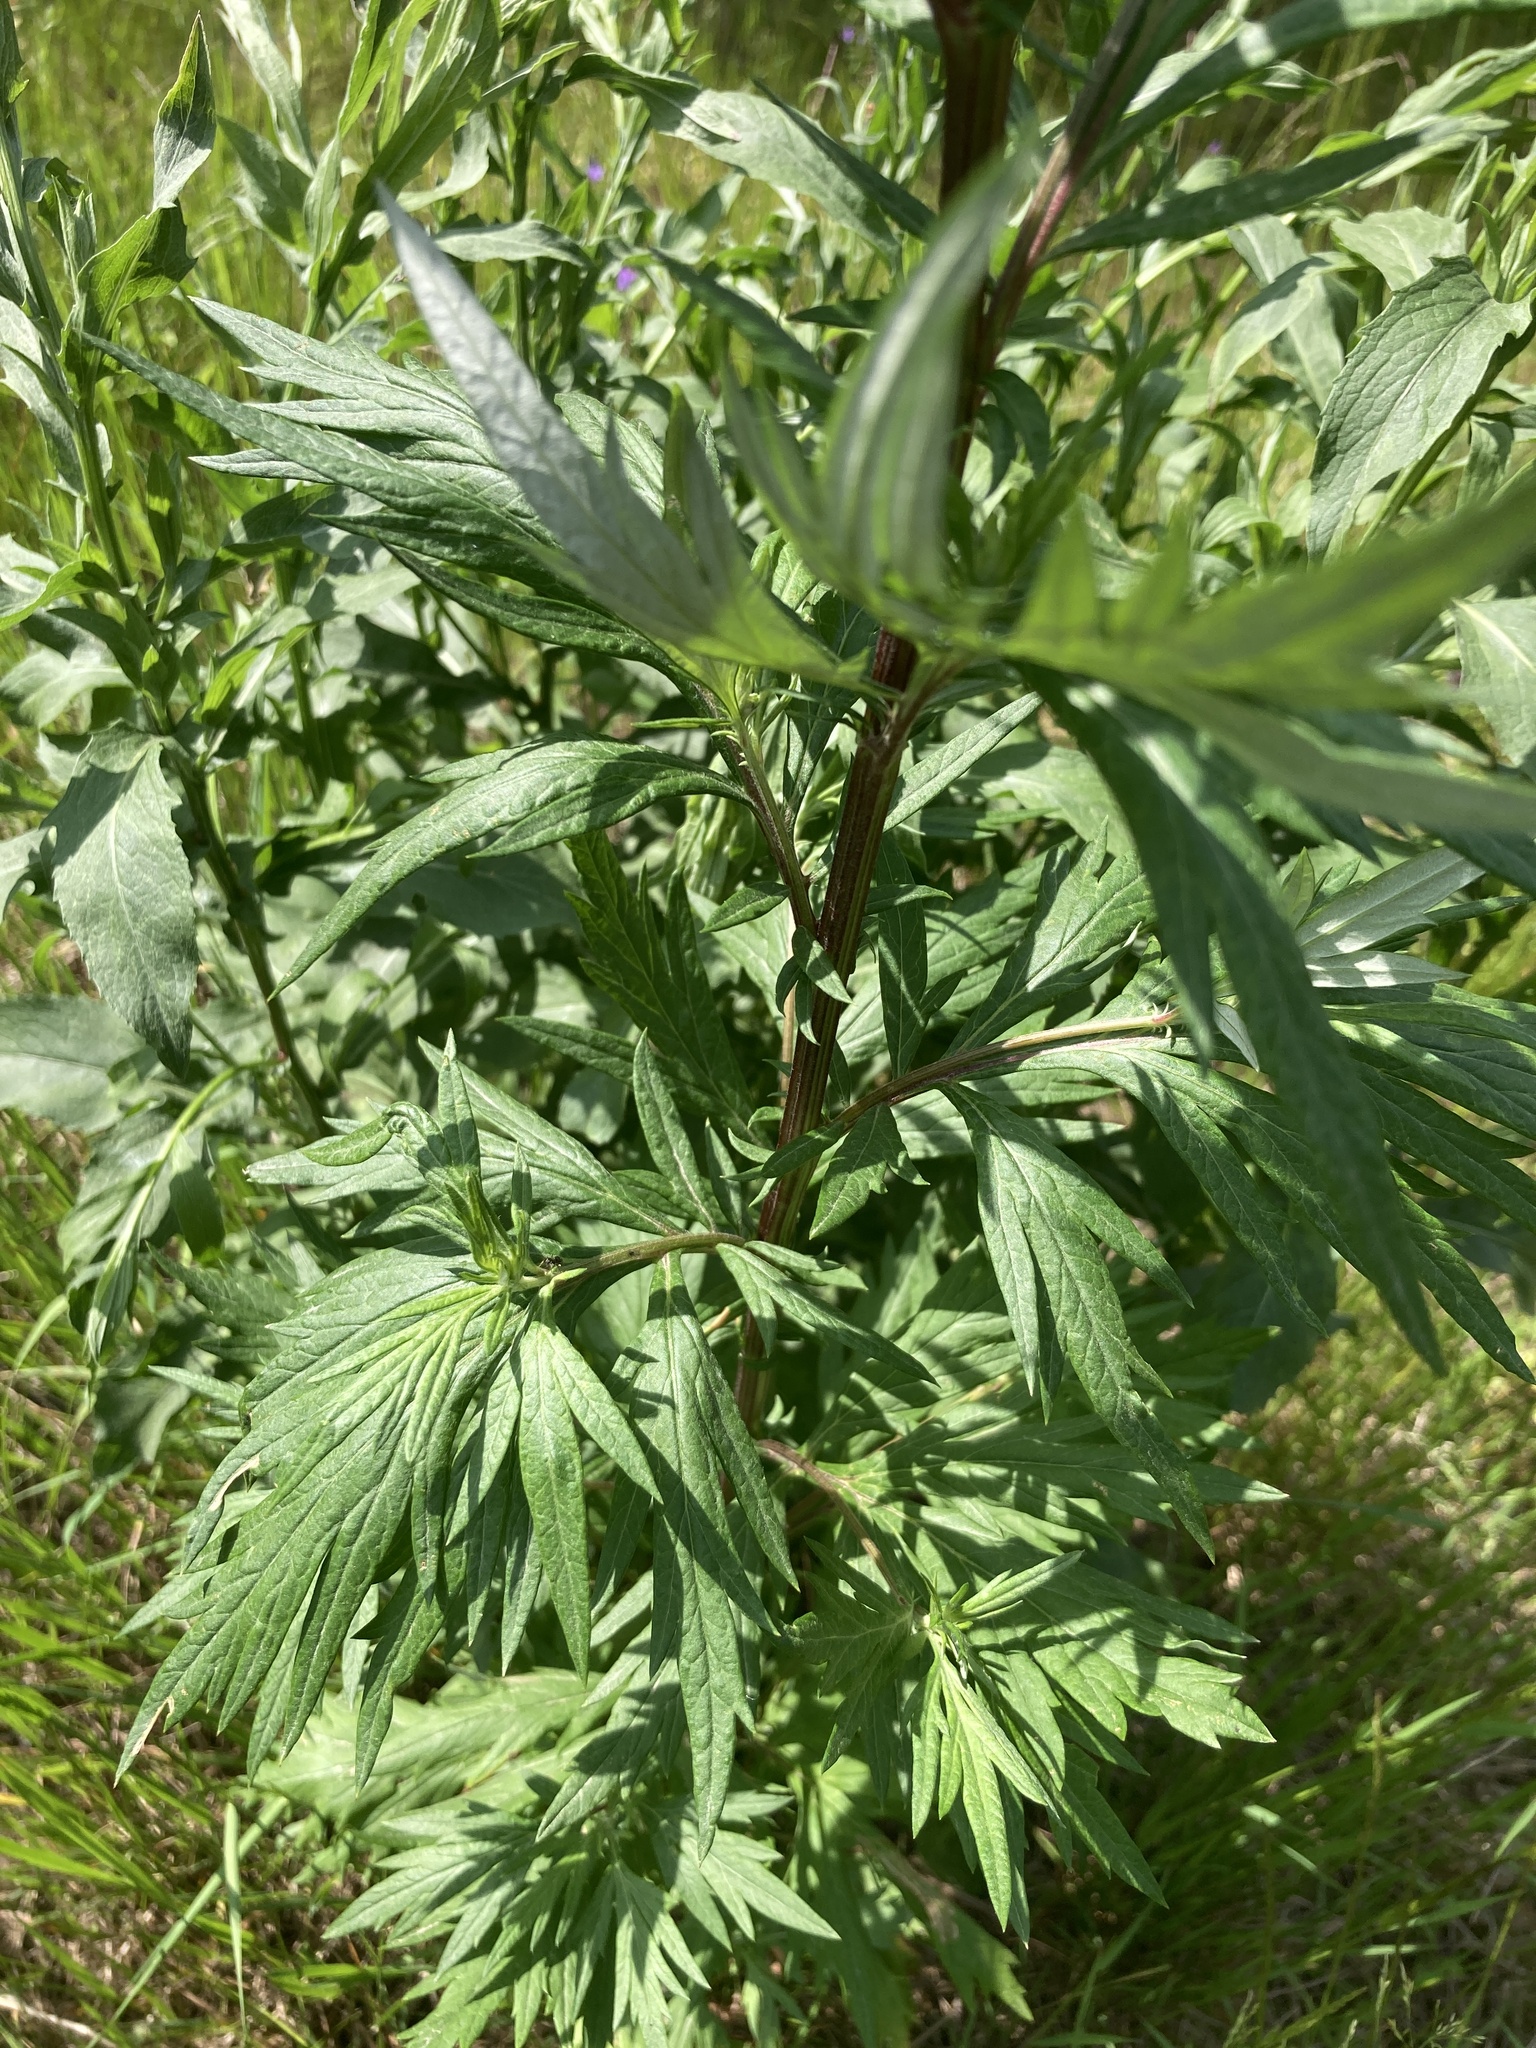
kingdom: Plantae
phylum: Tracheophyta
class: Magnoliopsida
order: Asterales
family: Asteraceae
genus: Artemisia
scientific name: Artemisia vulgaris
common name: Mugwort
